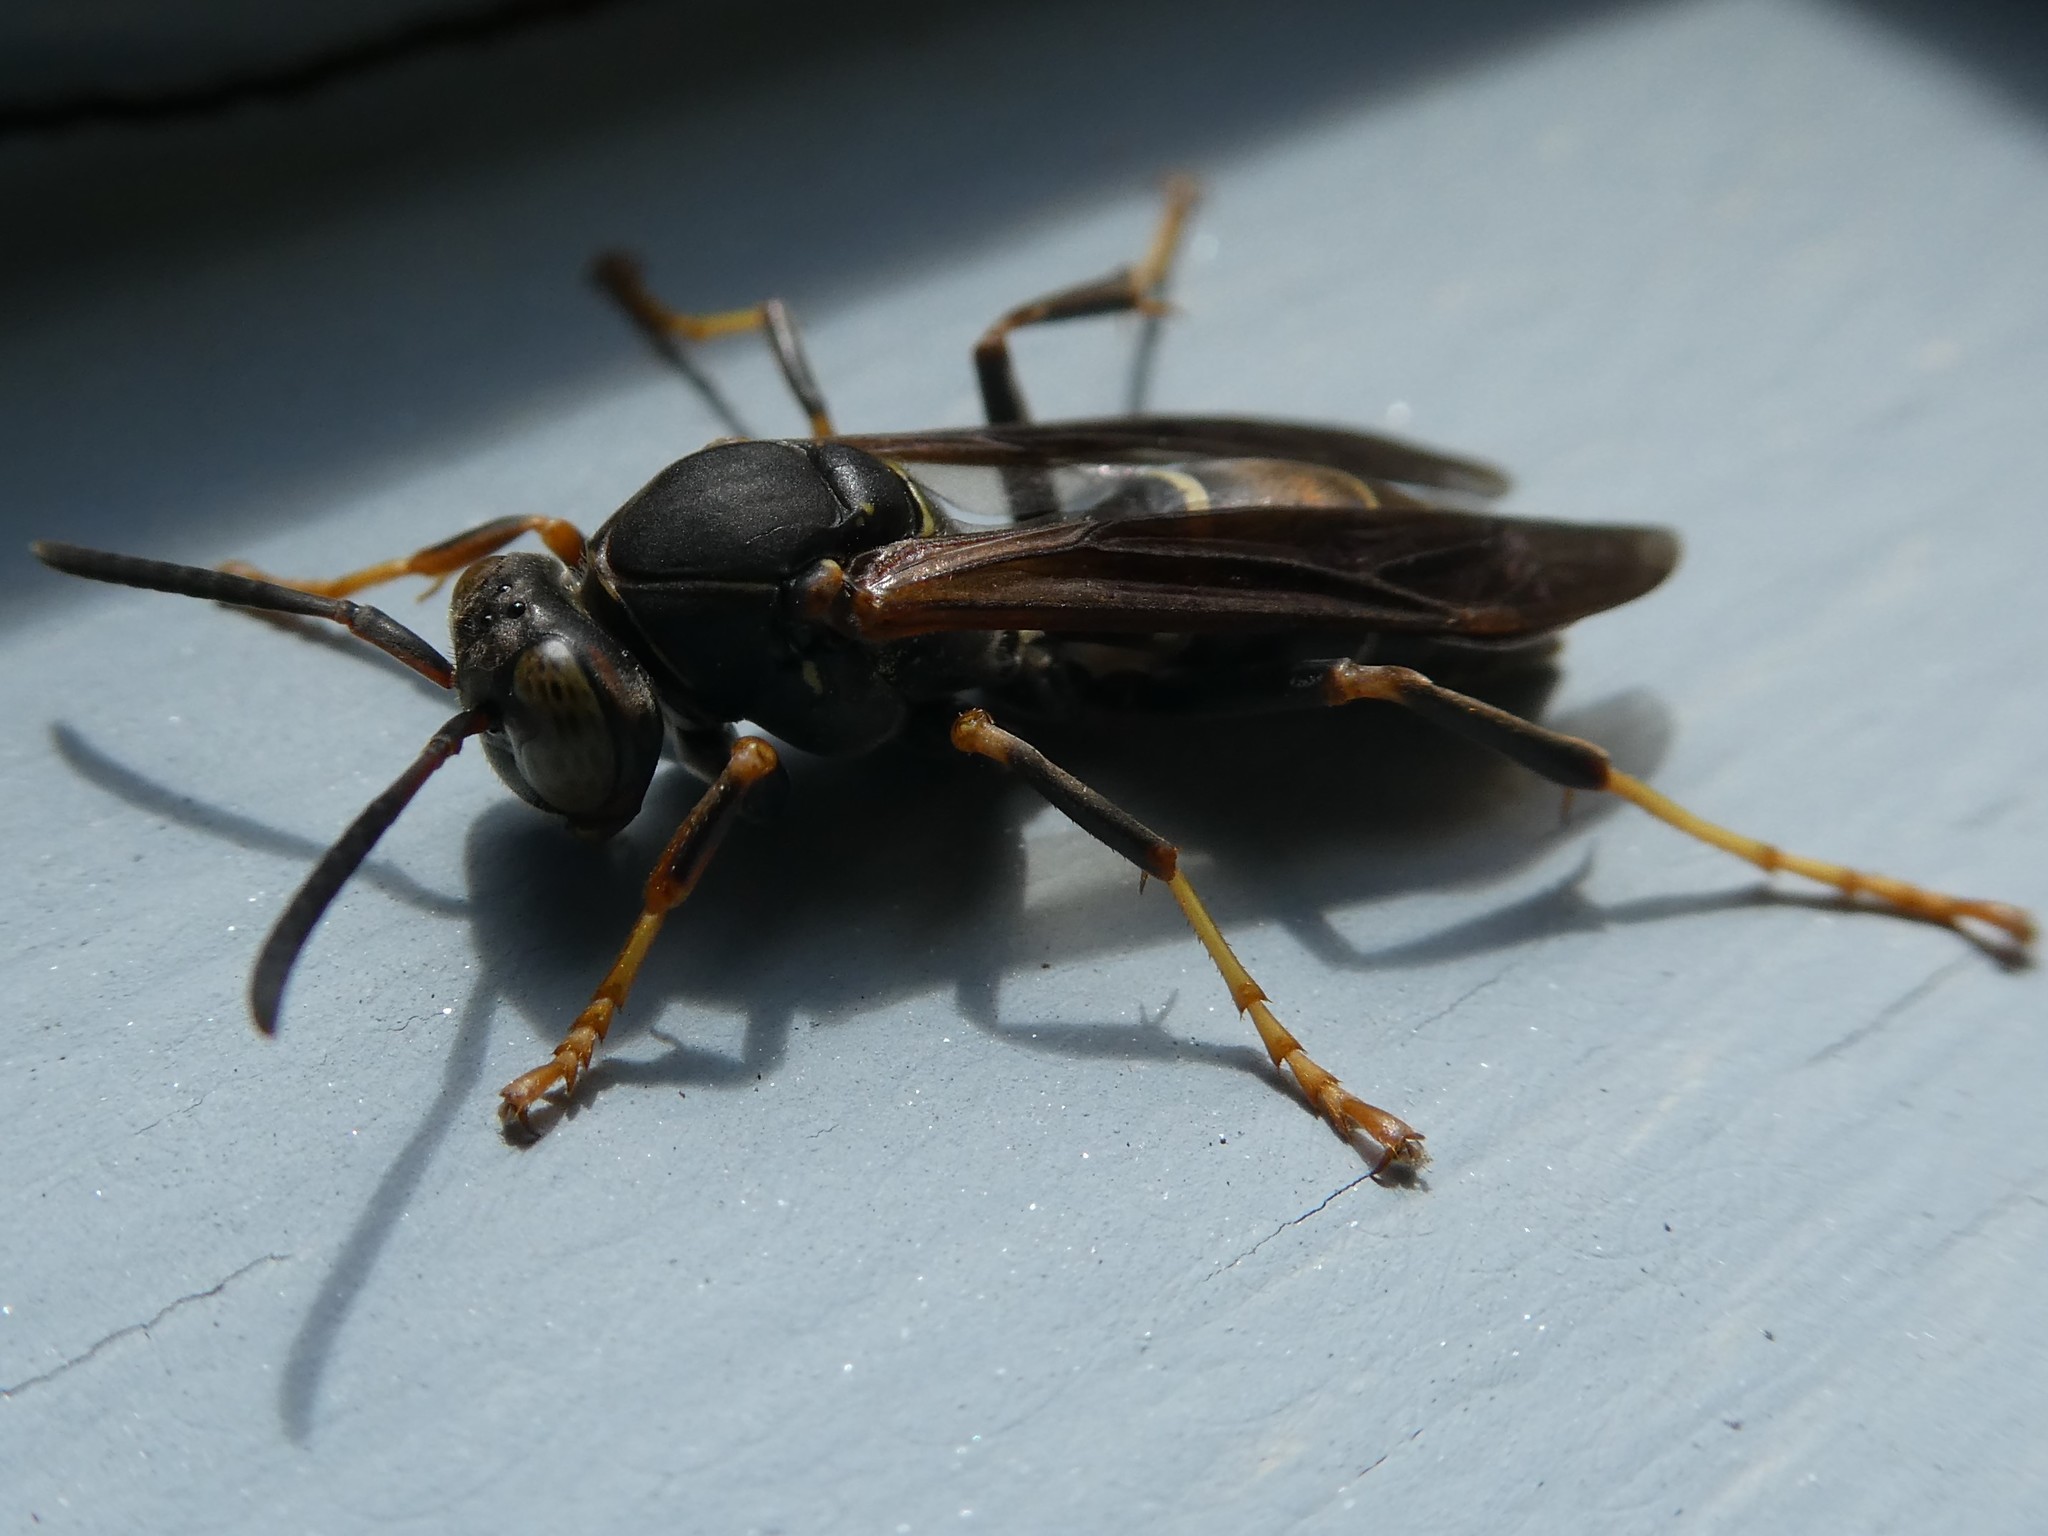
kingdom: Animalia
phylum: Arthropoda
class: Insecta
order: Hymenoptera
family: Eumenidae
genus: Polistes
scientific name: Polistes fuscatus
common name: Dark paper wasp
